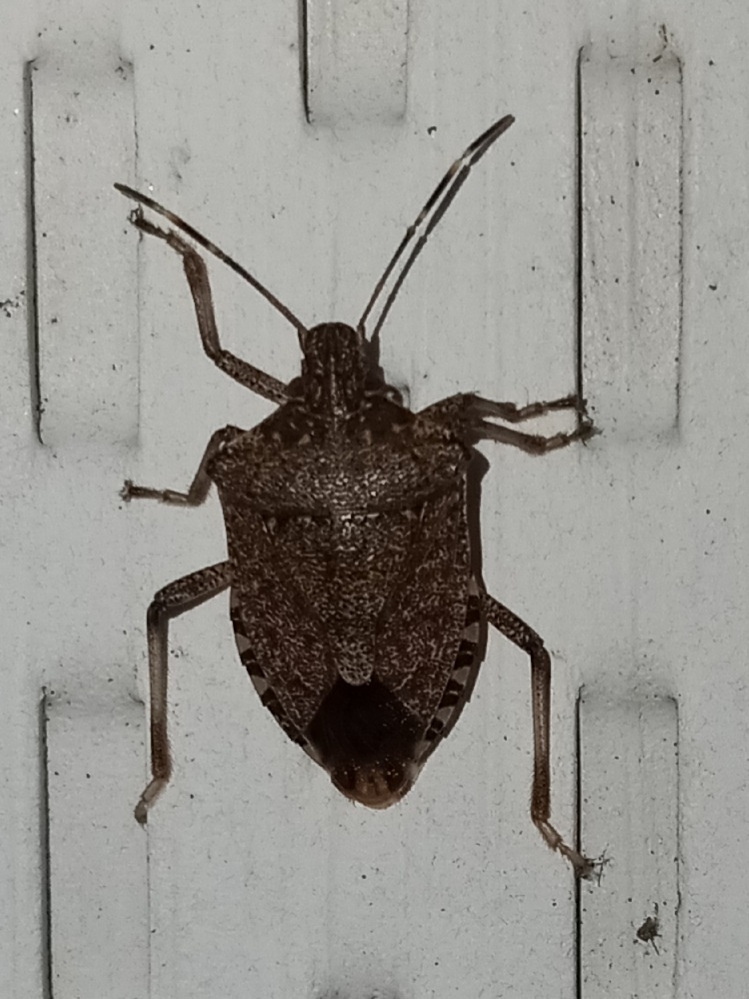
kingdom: Animalia
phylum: Arthropoda
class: Insecta
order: Hemiptera
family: Pentatomidae
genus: Halyomorpha
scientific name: Halyomorpha halys
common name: Brown marmorated stink bug
